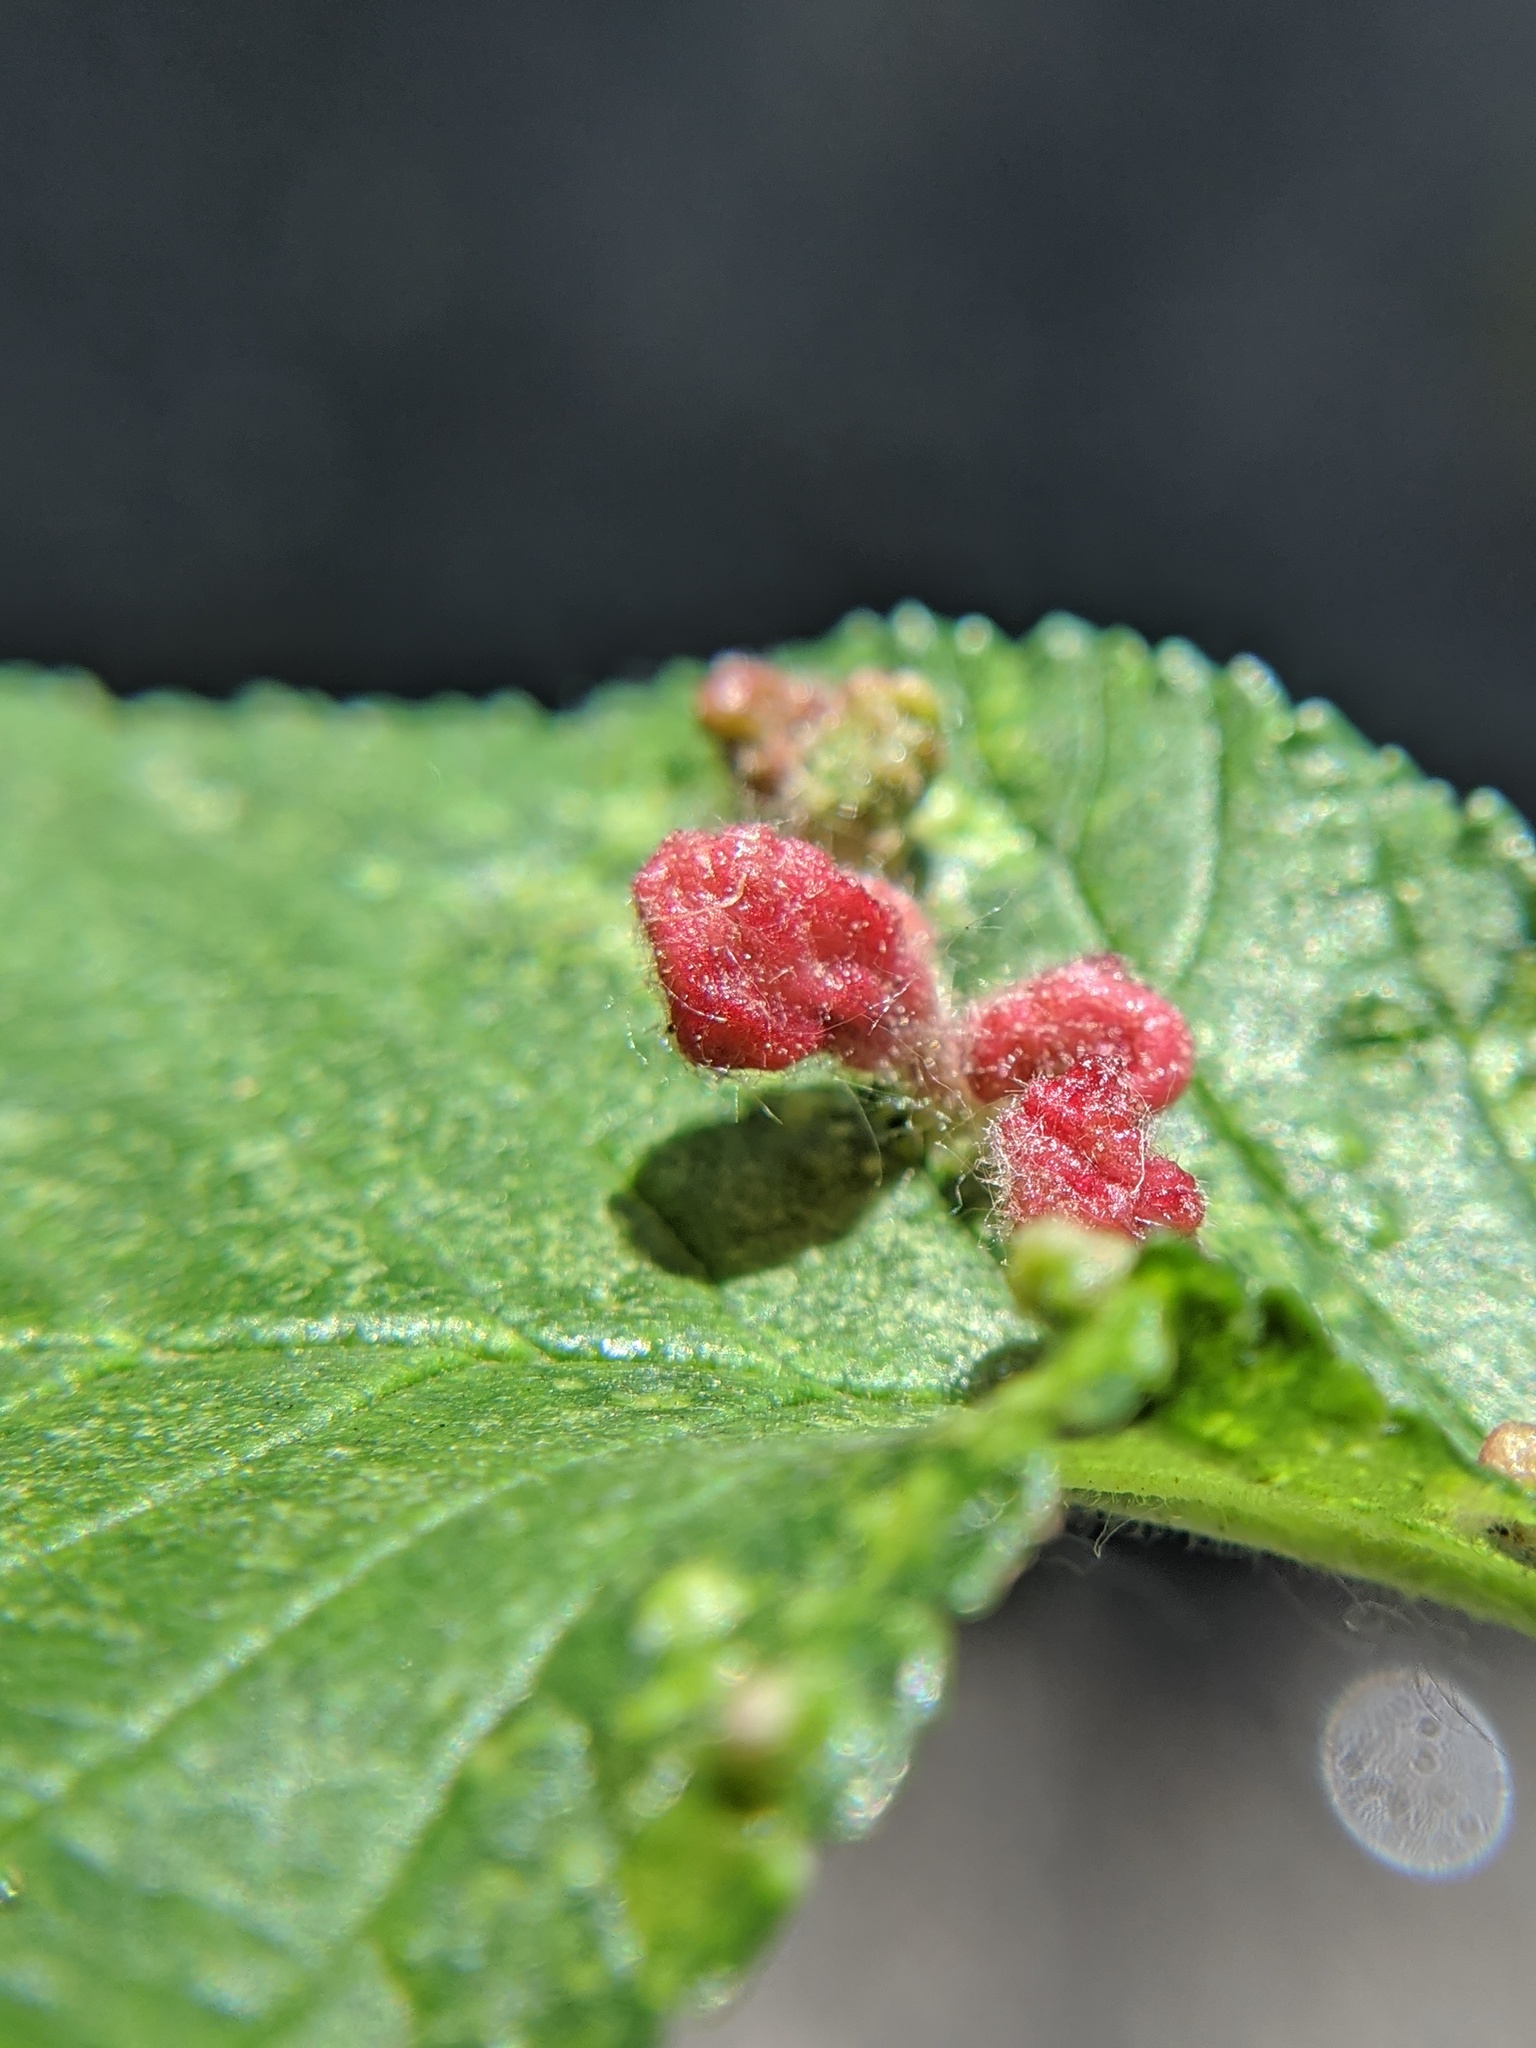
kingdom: Animalia
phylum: Arthropoda
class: Insecta
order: Hemiptera
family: Aphididae
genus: Tetraneura
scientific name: Tetraneura nigriabdominalis
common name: Aphid
